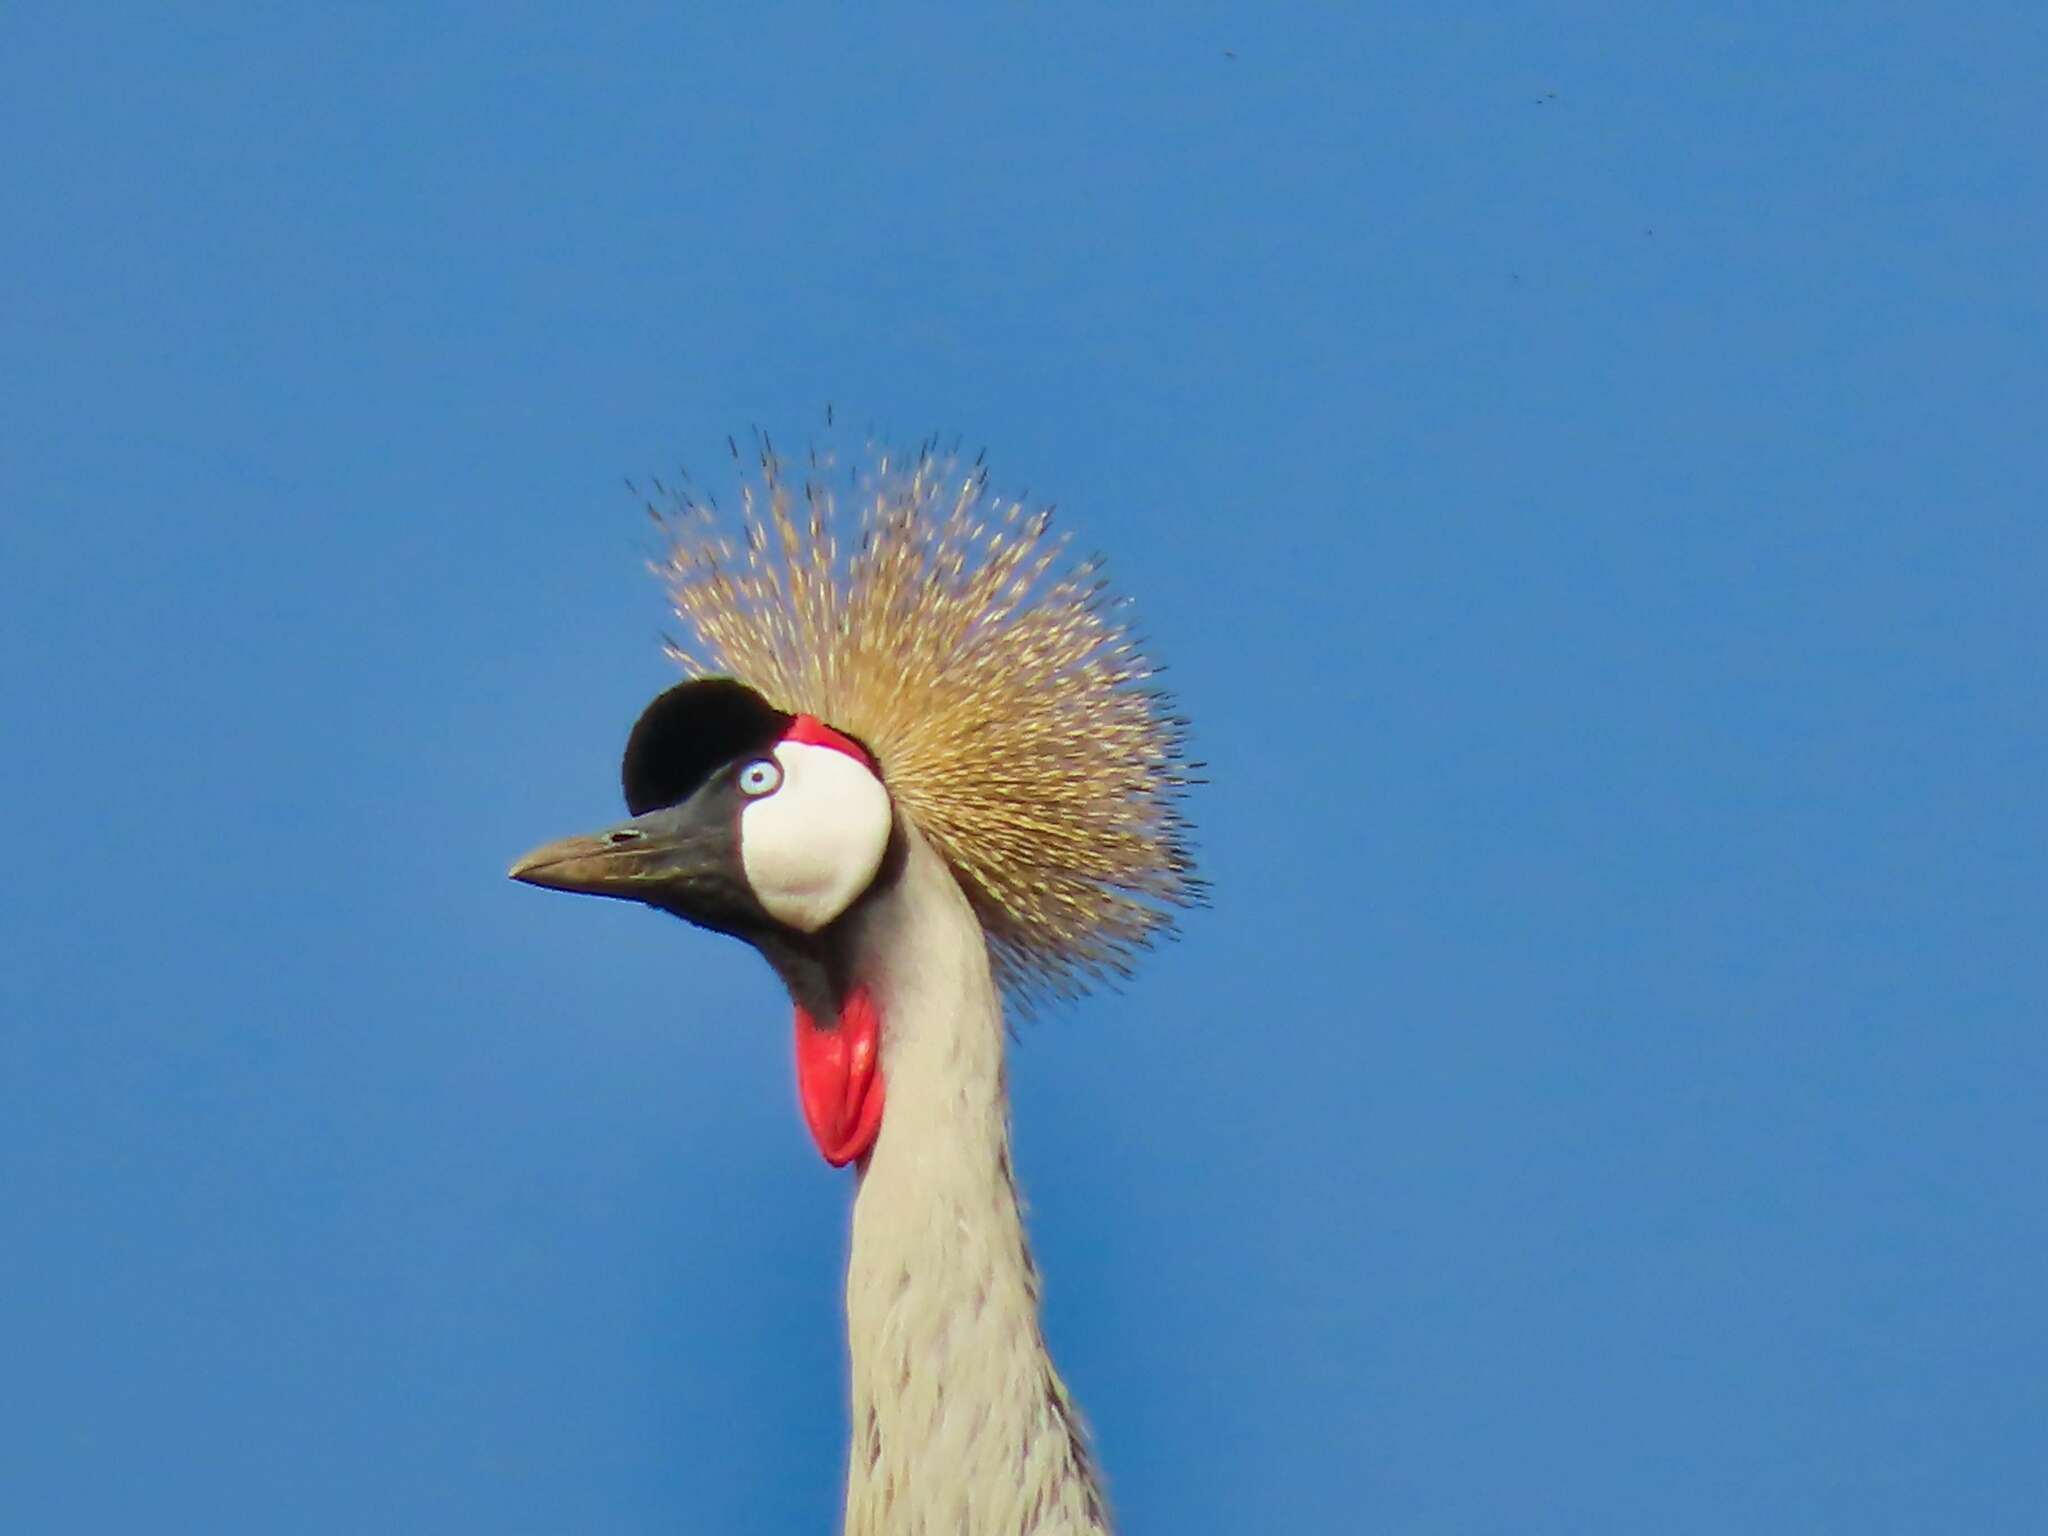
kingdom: Animalia
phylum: Chordata
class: Aves
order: Gruiformes
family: Gruidae
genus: Balearica
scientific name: Balearica regulorum
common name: Grey crowned crane
